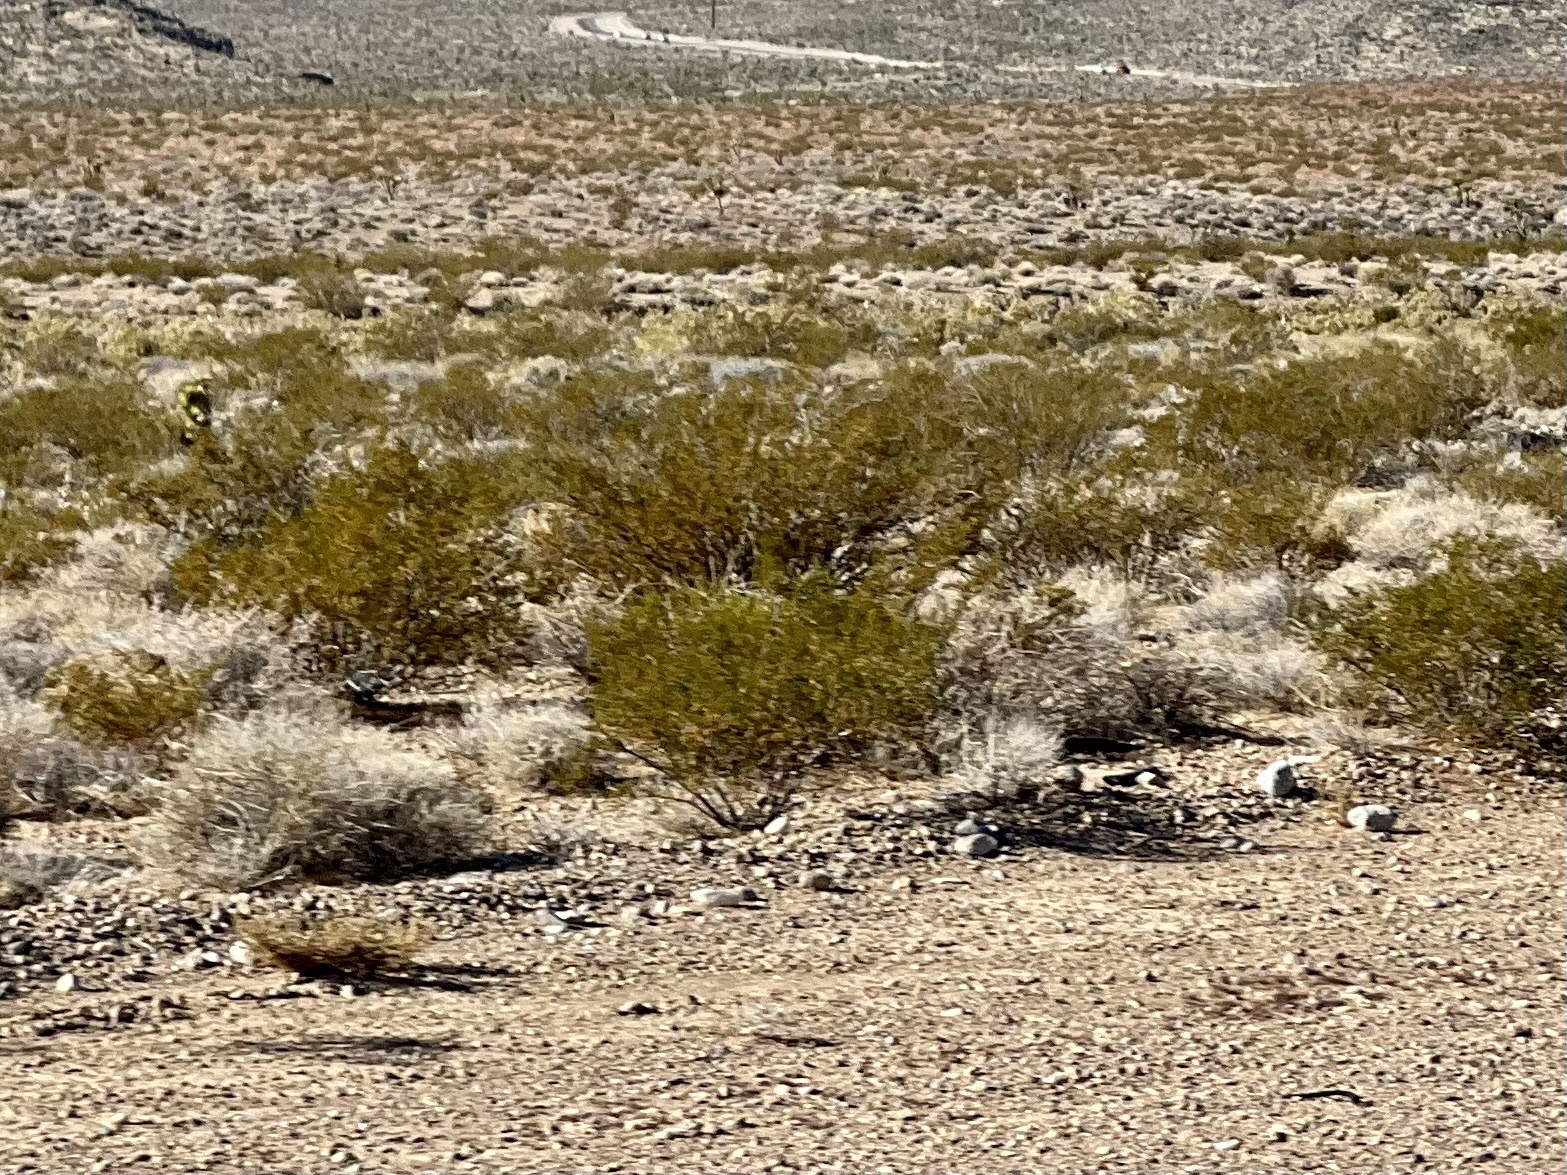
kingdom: Plantae
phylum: Tracheophyta
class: Magnoliopsida
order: Zygophyllales
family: Zygophyllaceae
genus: Larrea
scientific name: Larrea tridentata
